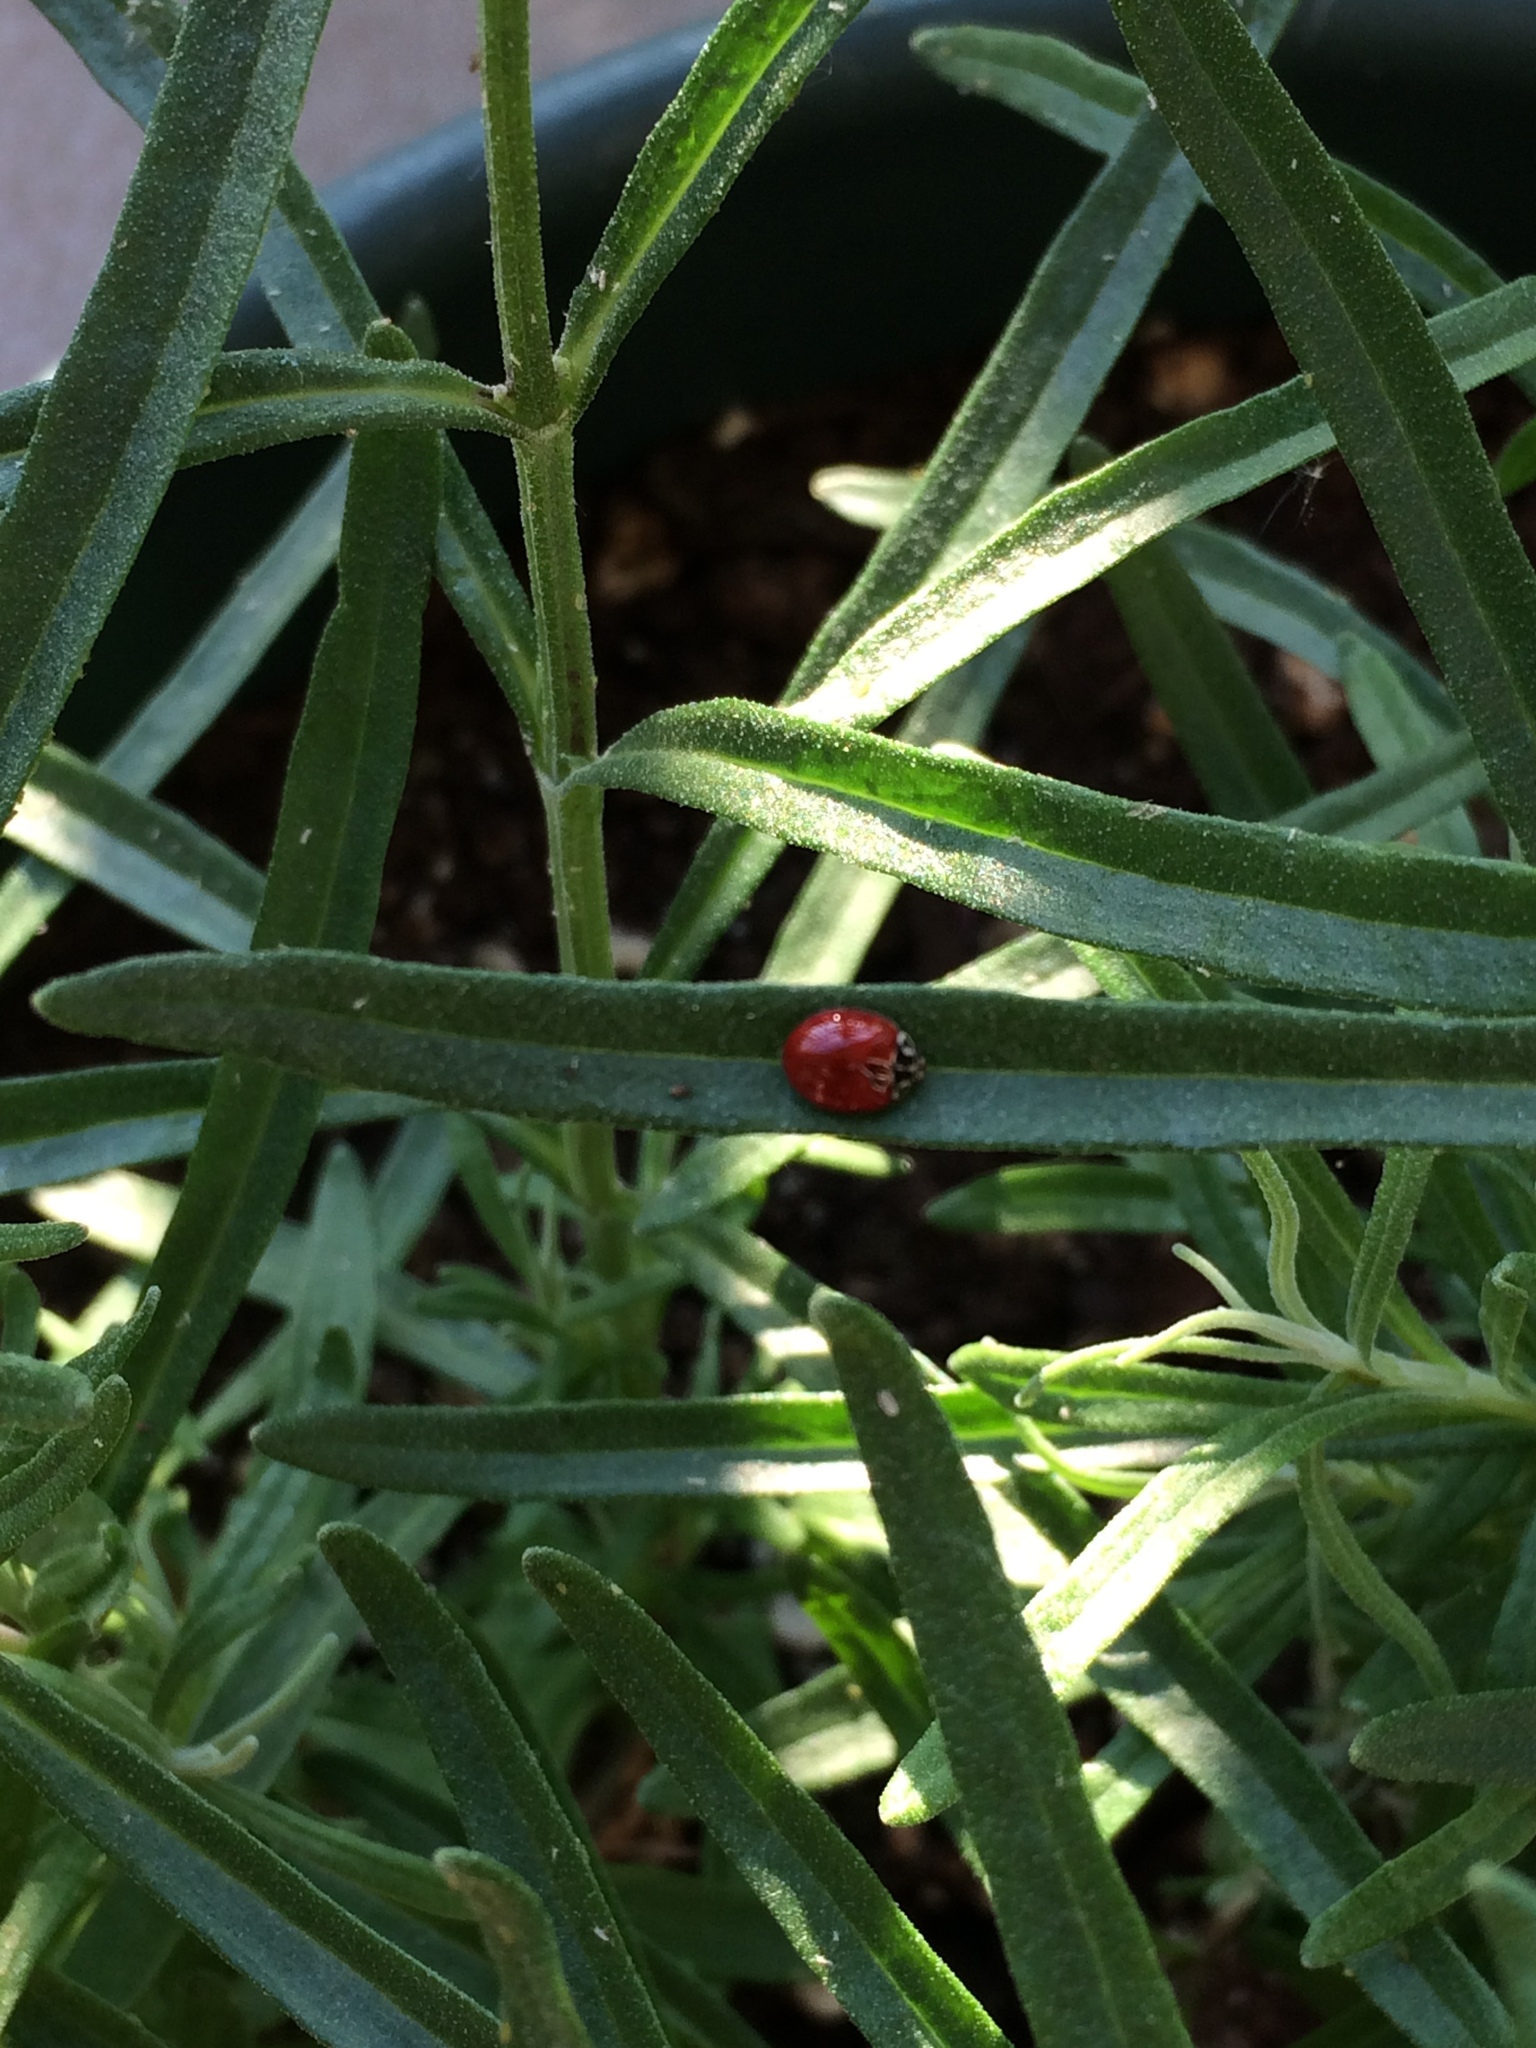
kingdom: Animalia
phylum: Arthropoda
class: Insecta
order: Coleoptera
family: Coccinellidae
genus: Cycloneda
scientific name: Cycloneda polita
